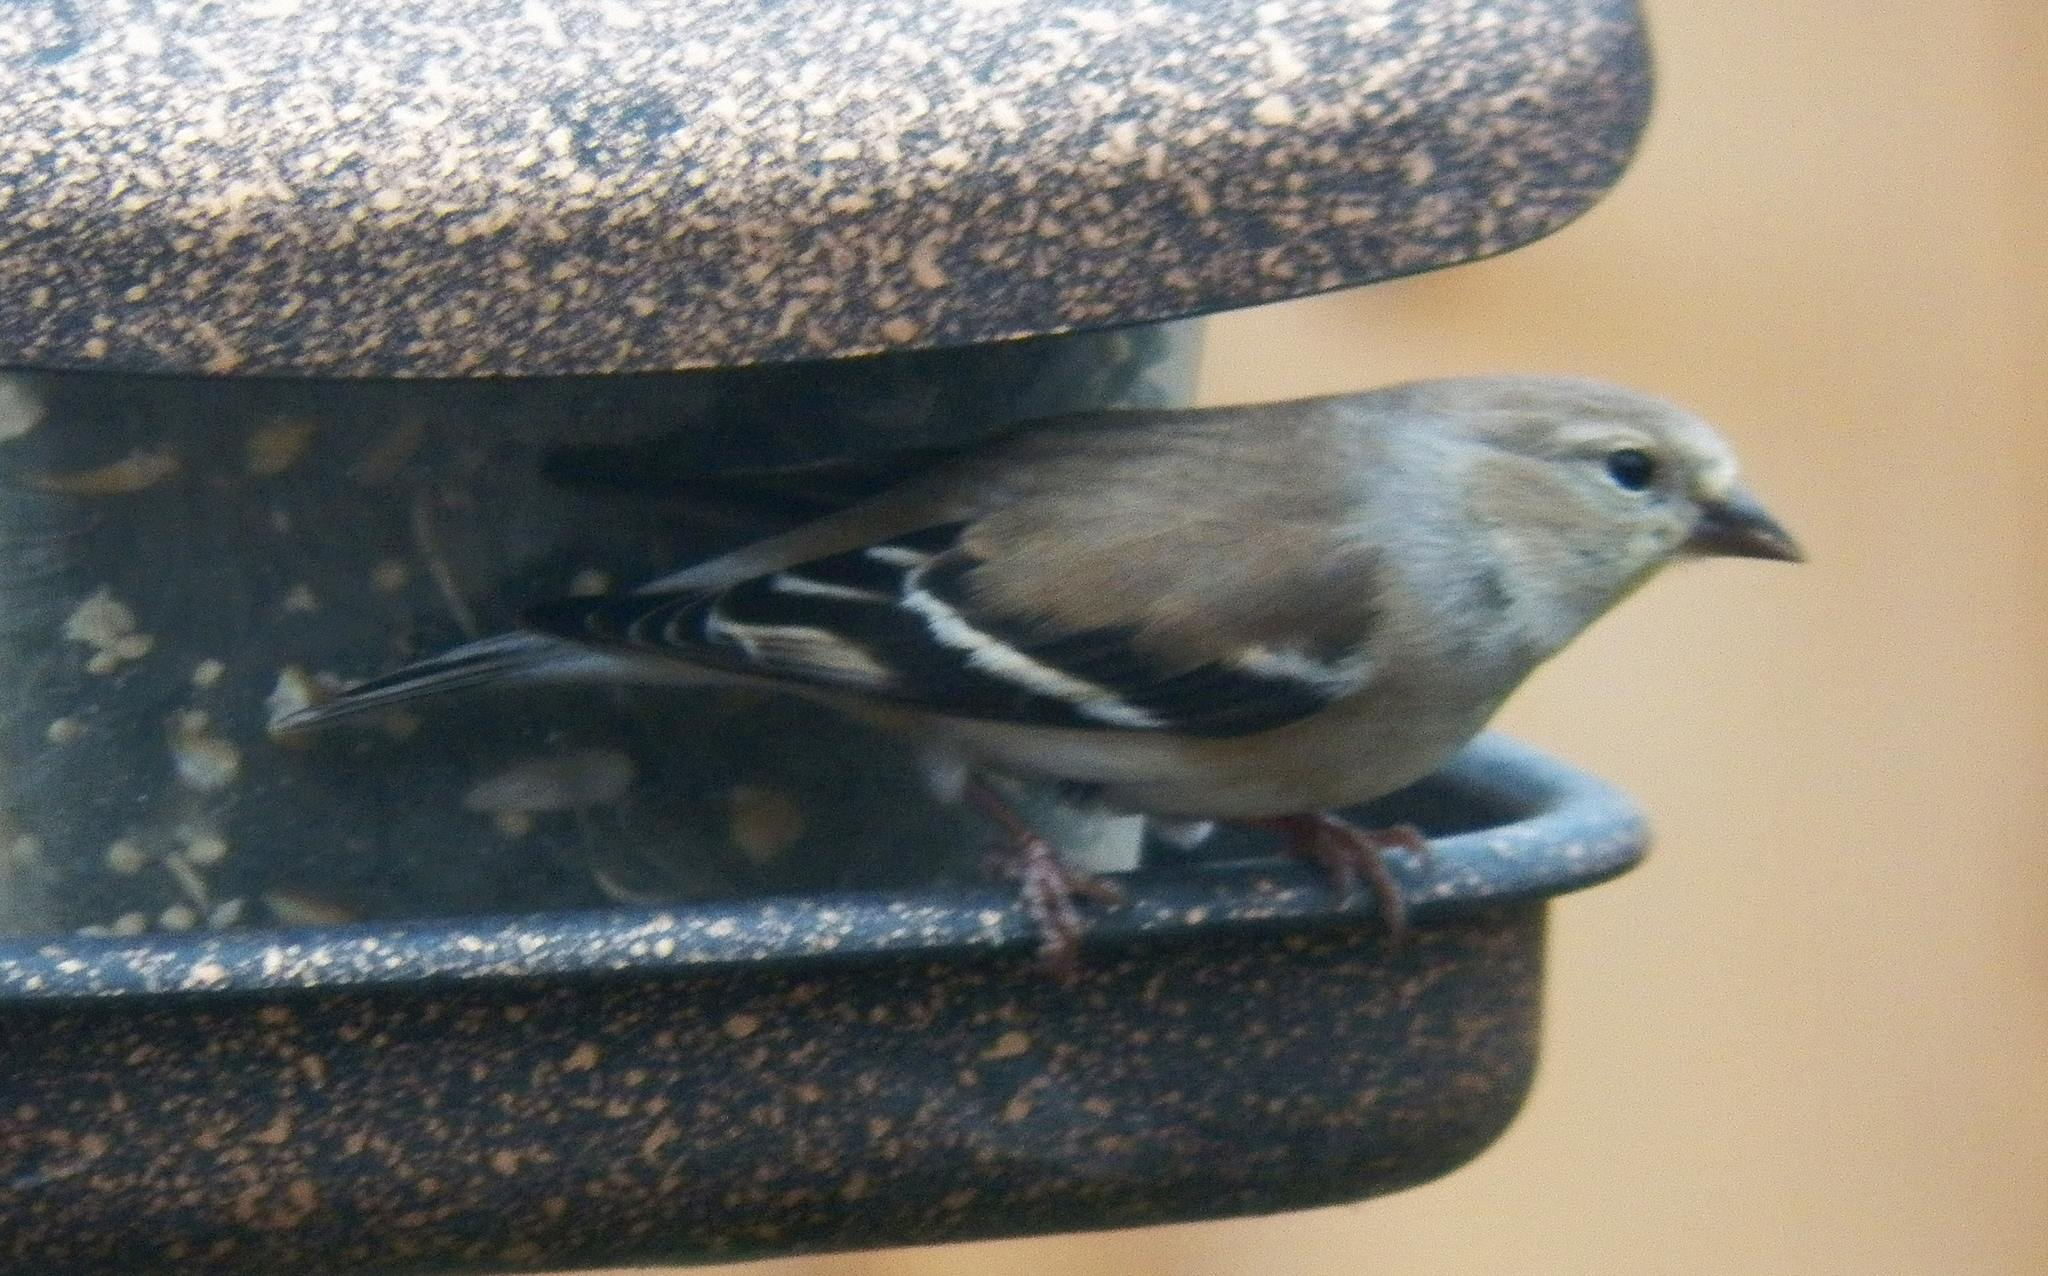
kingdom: Animalia
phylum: Chordata
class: Aves
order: Passeriformes
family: Fringillidae
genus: Spinus
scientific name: Spinus tristis
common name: American goldfinch
